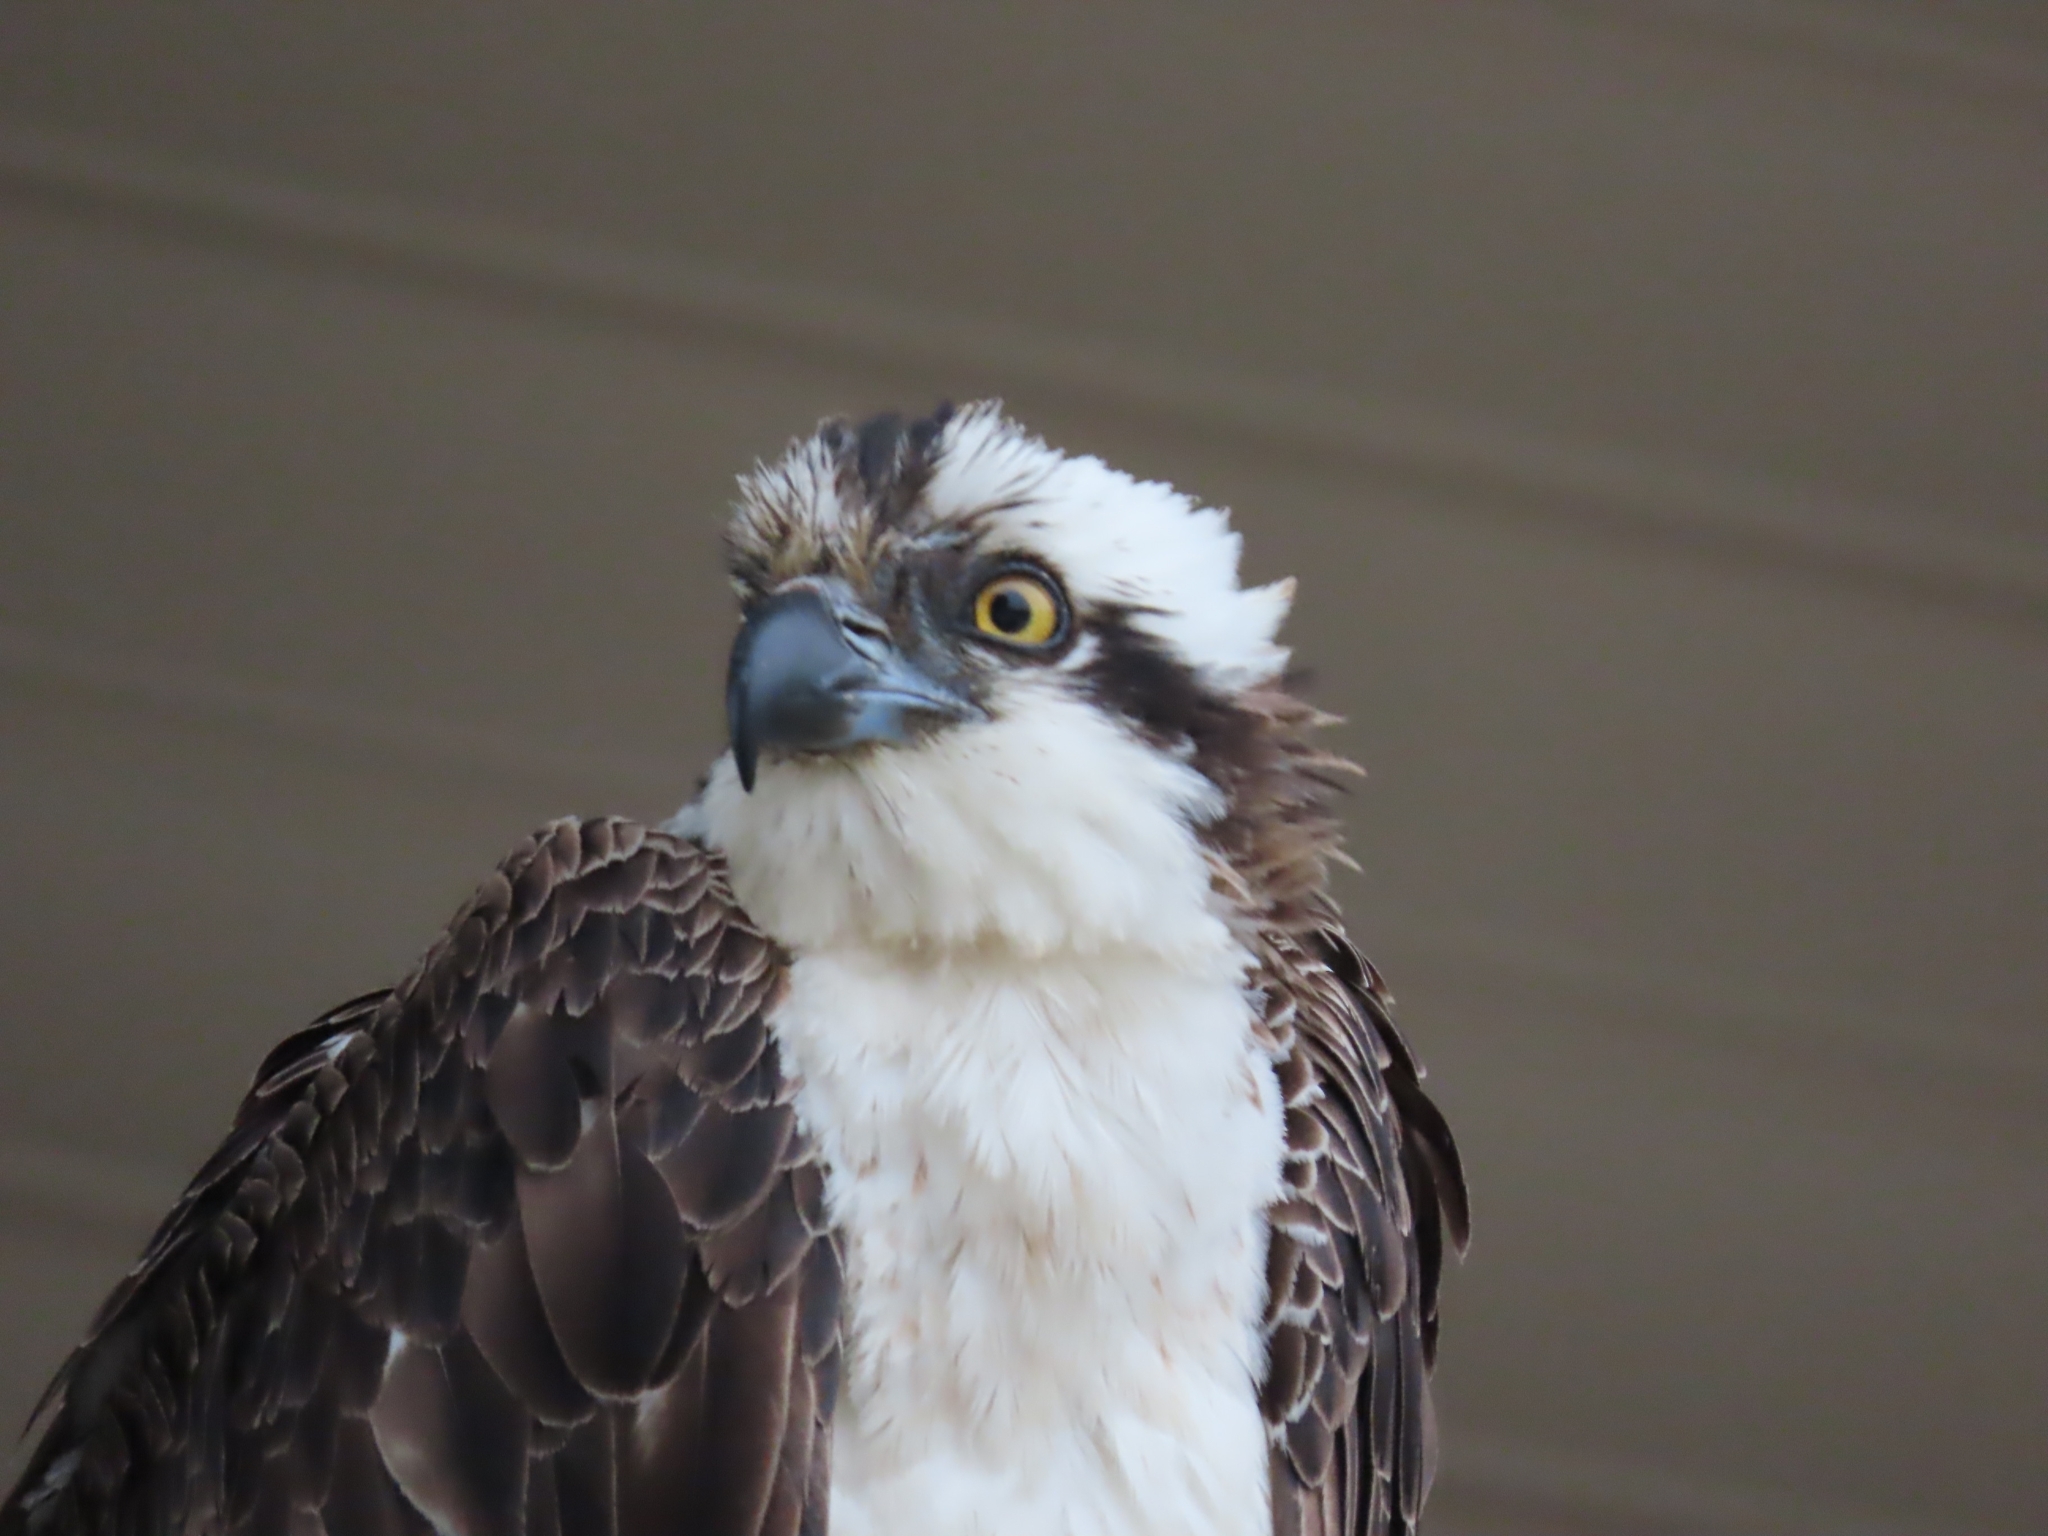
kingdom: Animalia
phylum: Chordata
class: Aves
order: Accipitriformes
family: Pandionidae
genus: Pandion
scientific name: Pandion haliaetus
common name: Osprey
